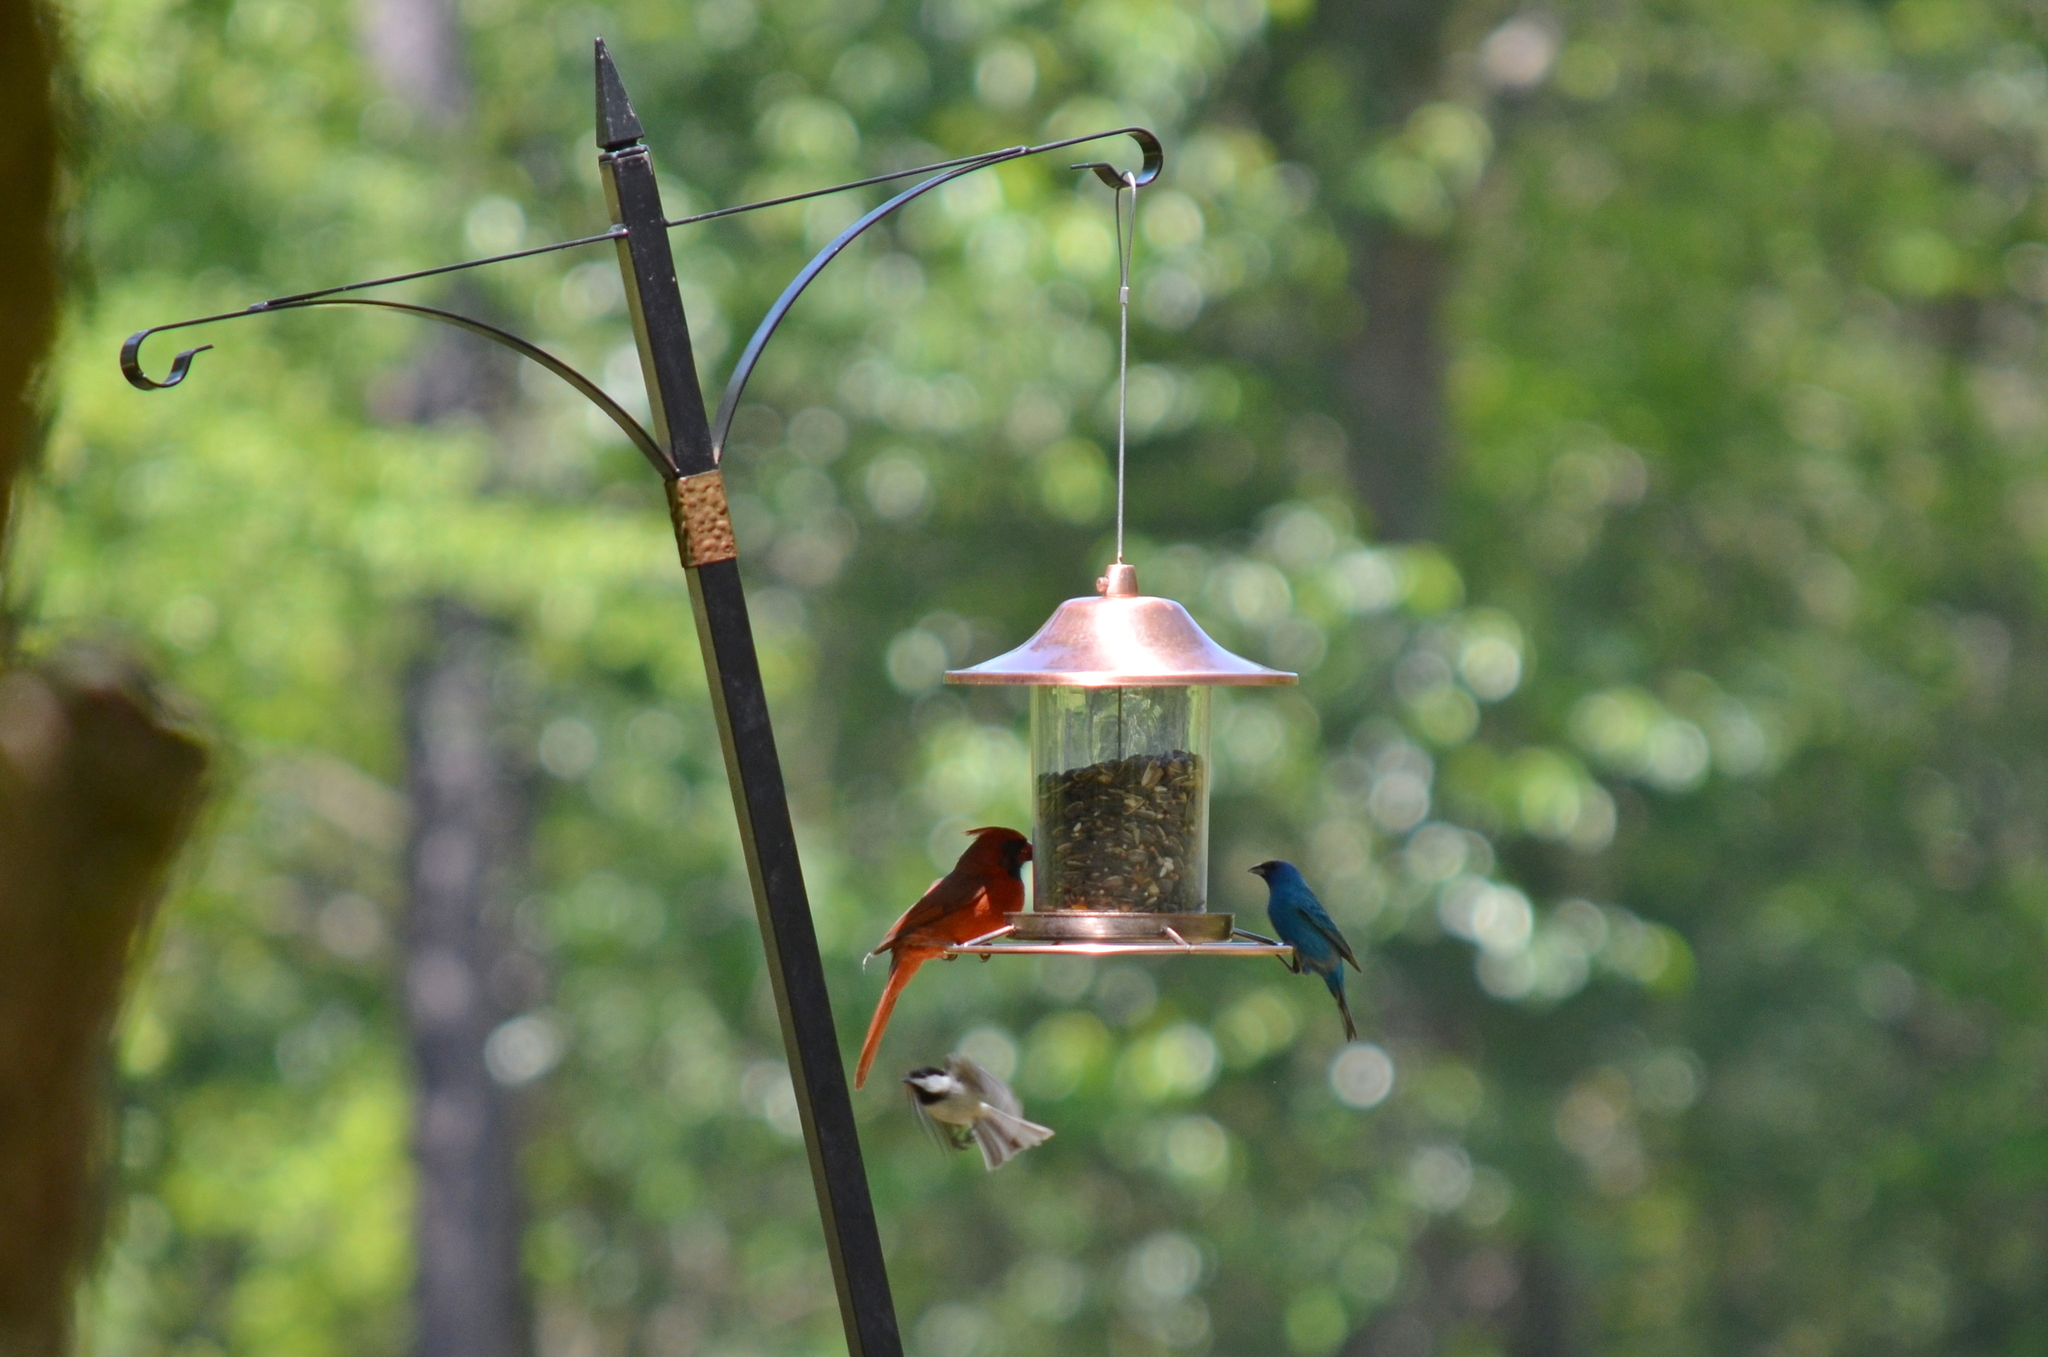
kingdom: Animalia
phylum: Chordata
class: Aves
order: Passeriformes
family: Cardinalidae
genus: Passerina
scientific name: Passerina cyanea
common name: Indigo bunting
